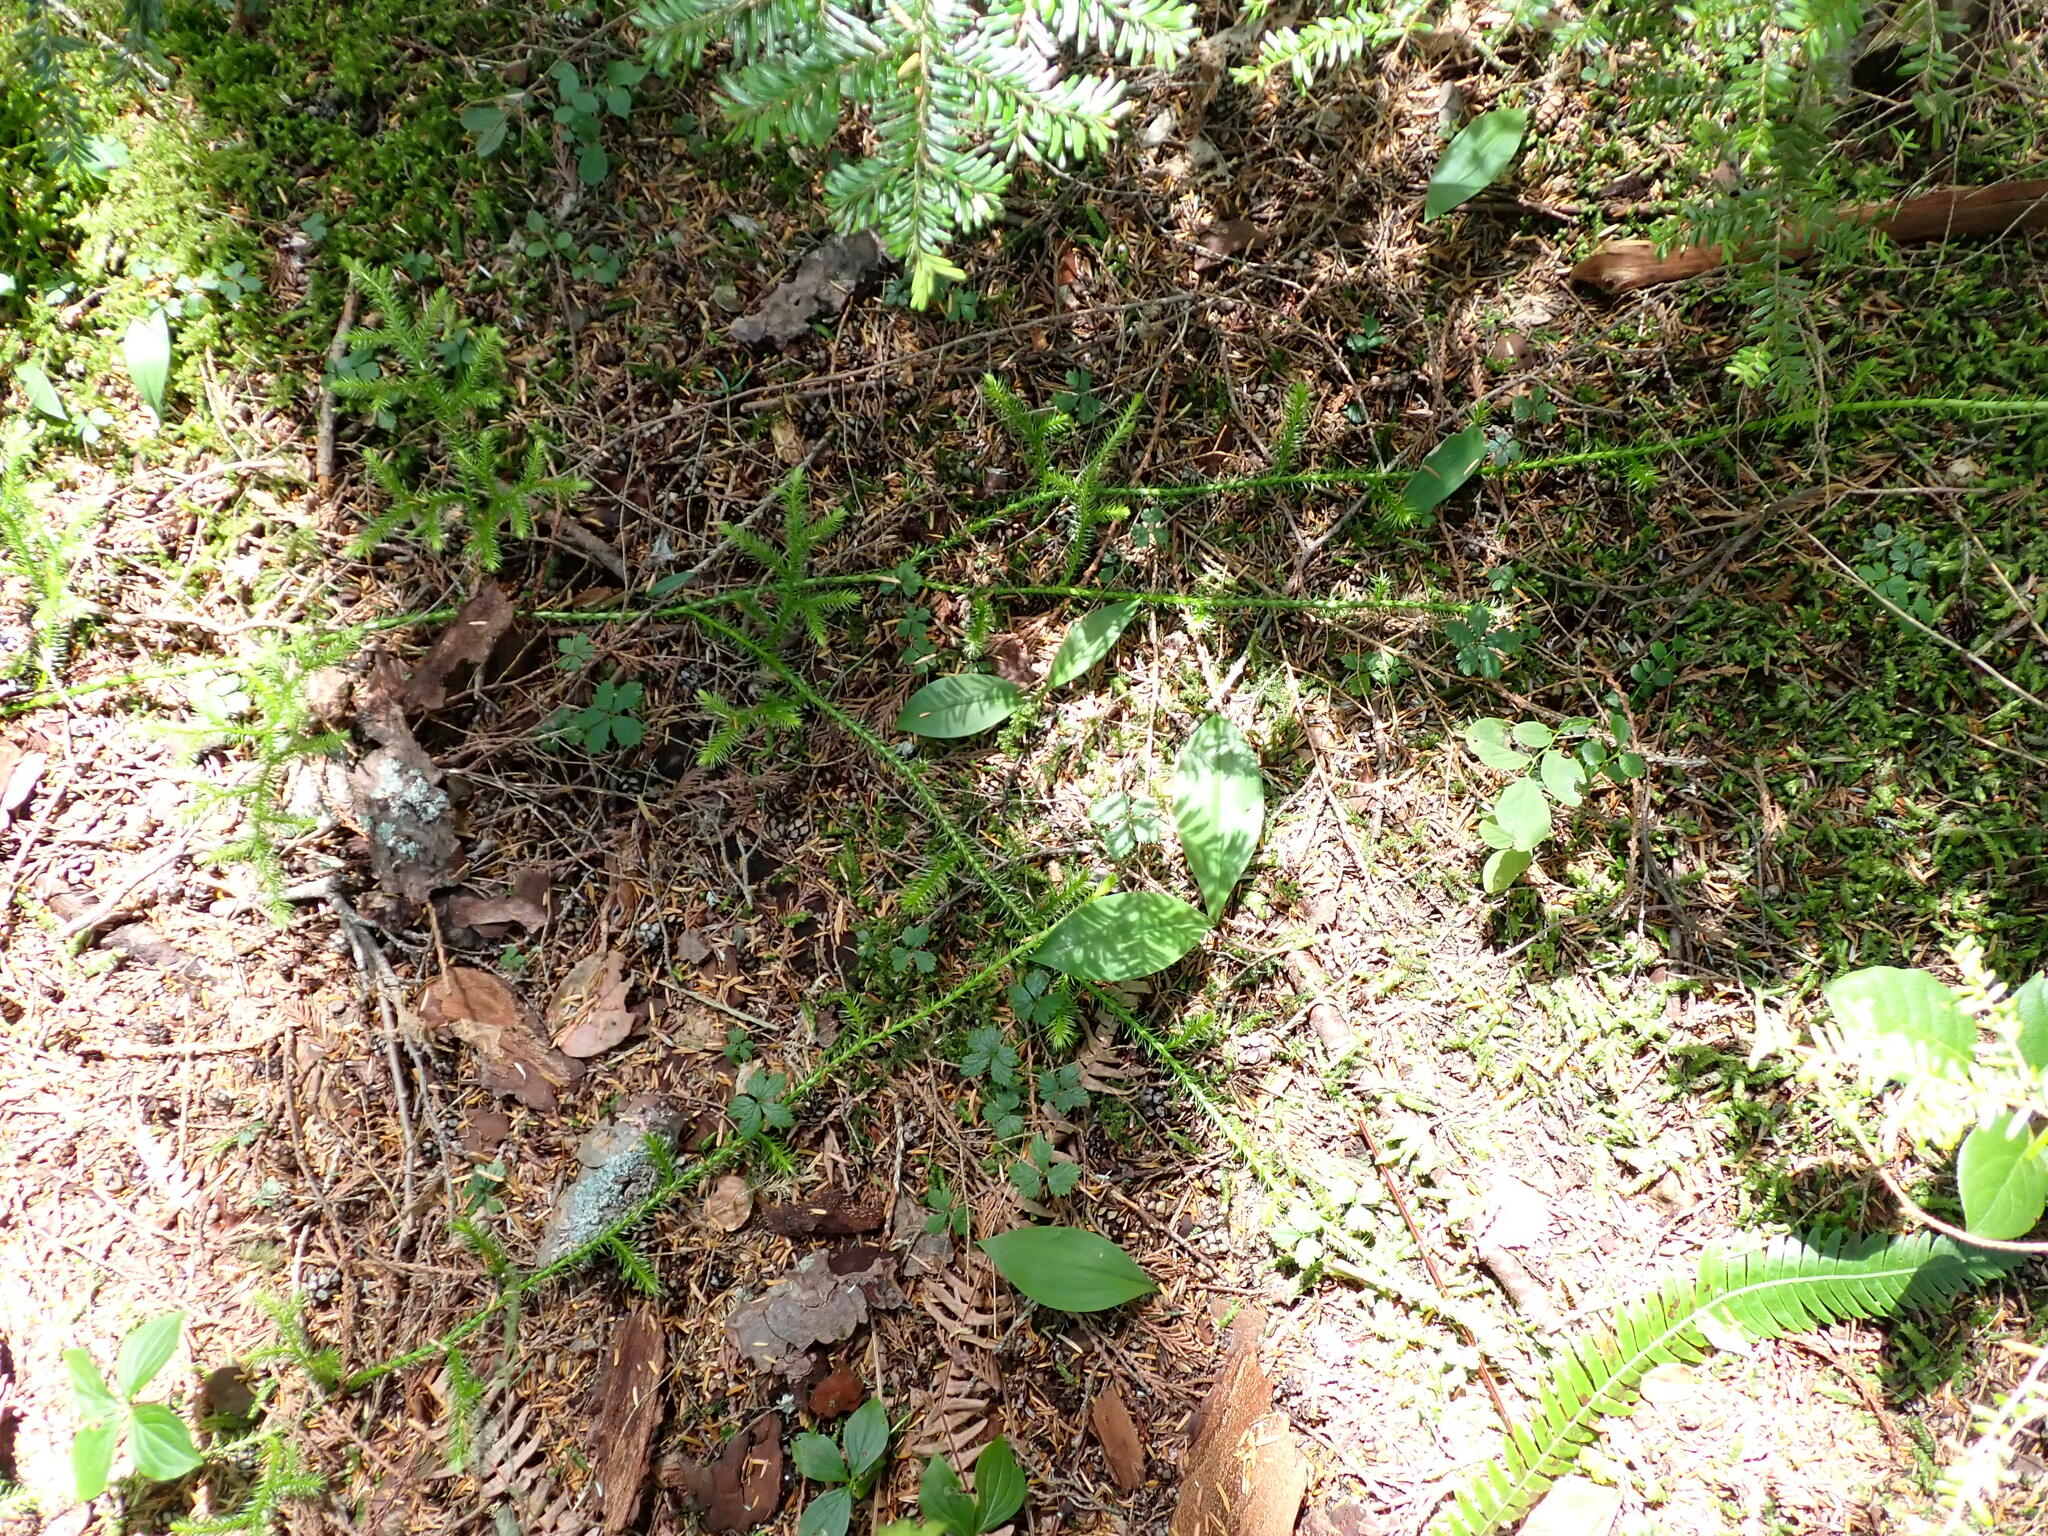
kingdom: Plantae
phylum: Tracheophyta
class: Lycopodiopsida
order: Lycopodiales
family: Lycopodiaceae
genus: Lycopodium
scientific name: Lycopodium clavatum
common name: Stag's-horn clubmoss
